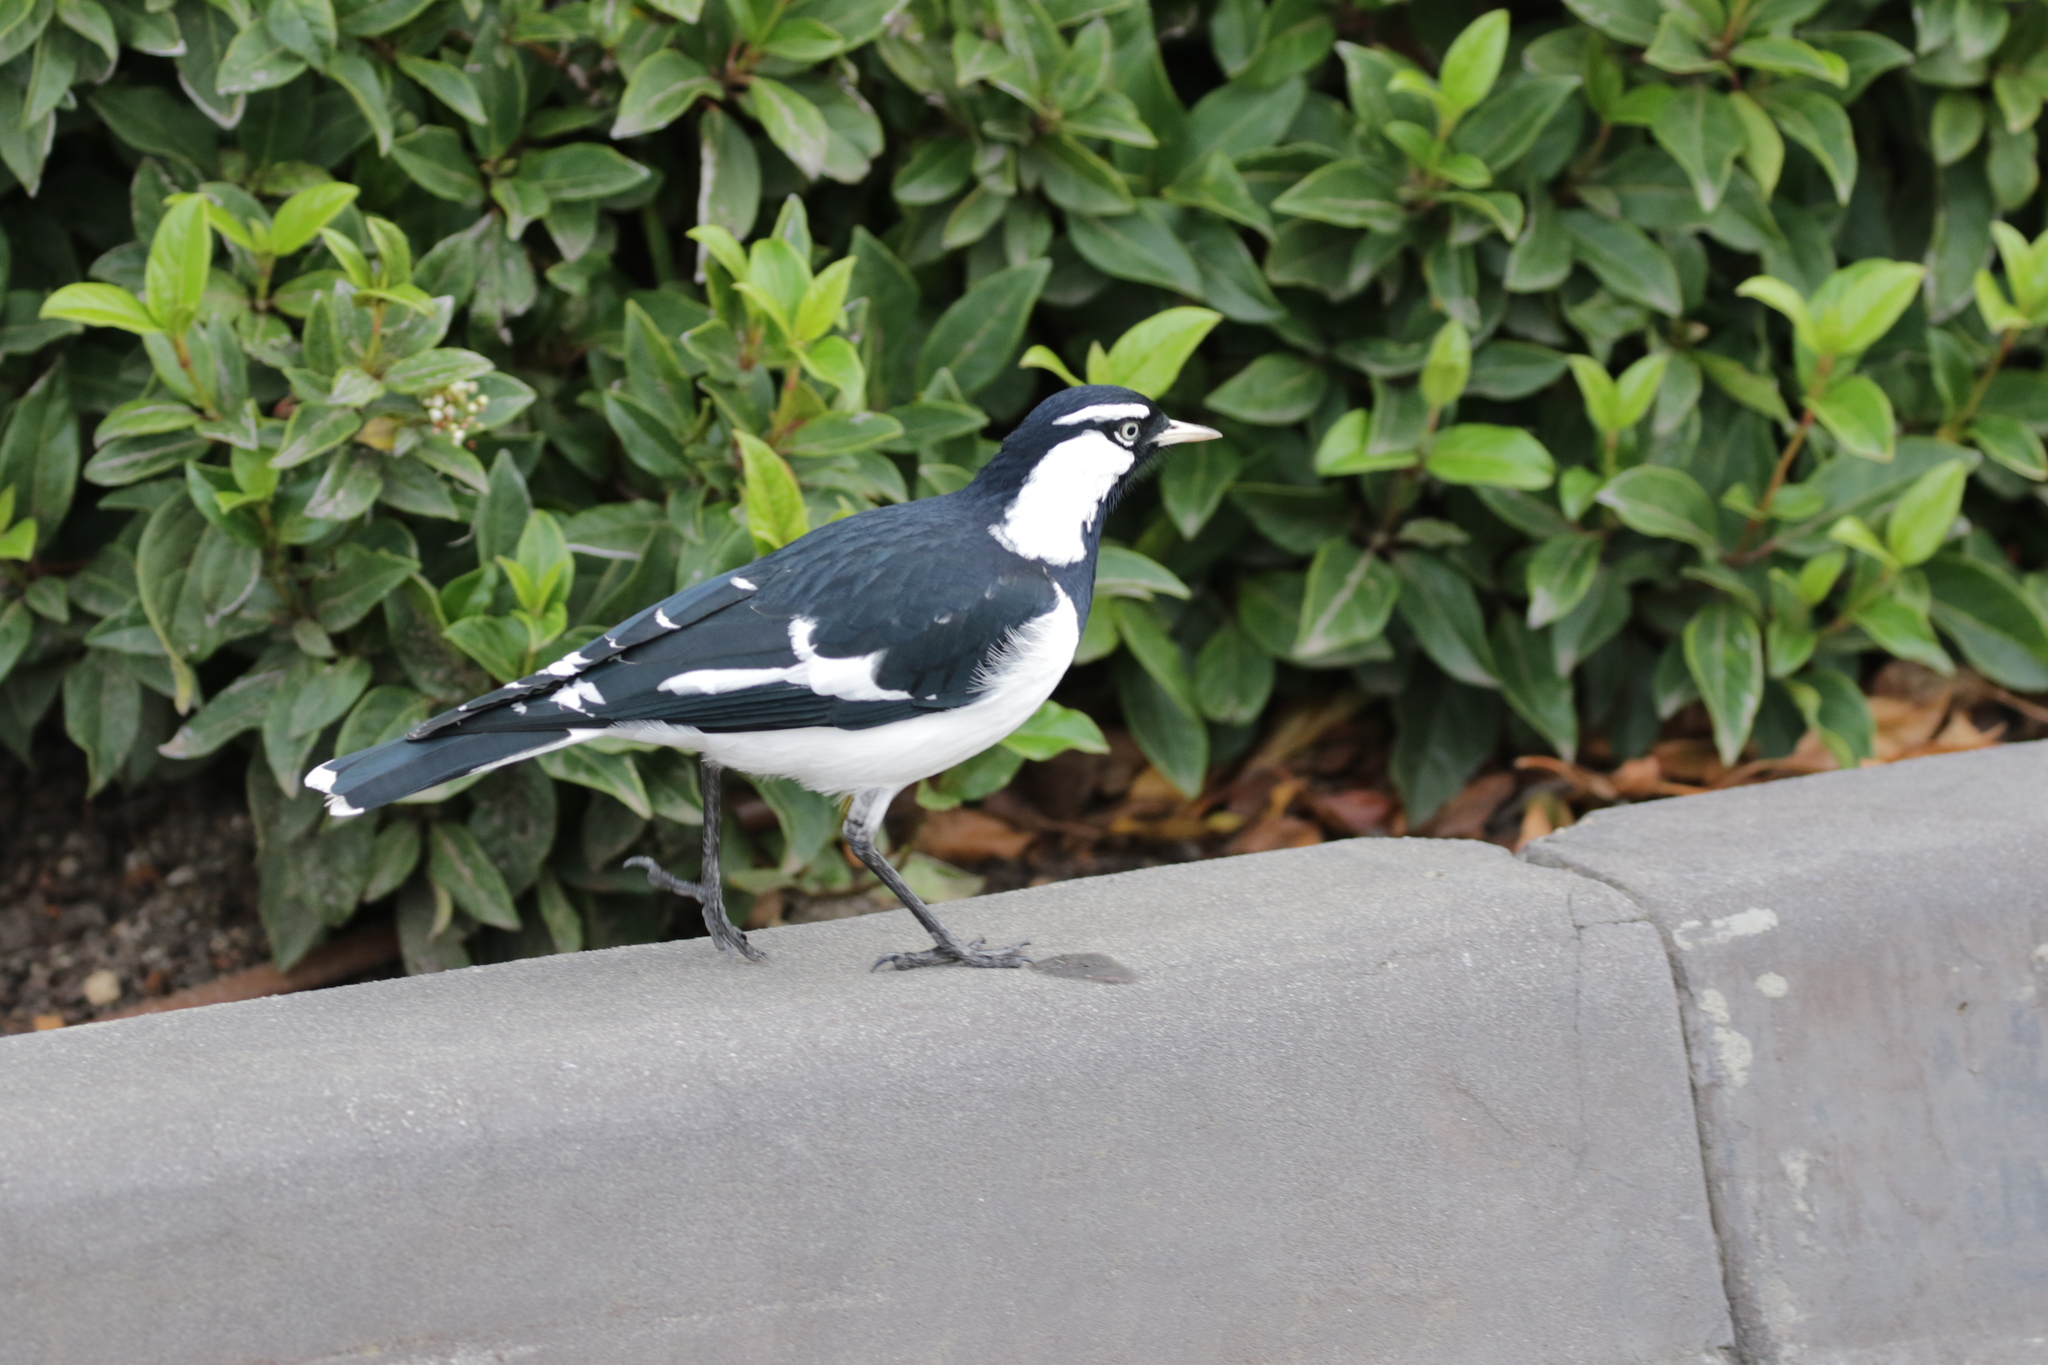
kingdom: Animalia
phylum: Chordata
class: Aves
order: Passeriformes
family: Monarchidae
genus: Grallina
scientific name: Grallina cyanoleuca
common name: Magpie-lark
